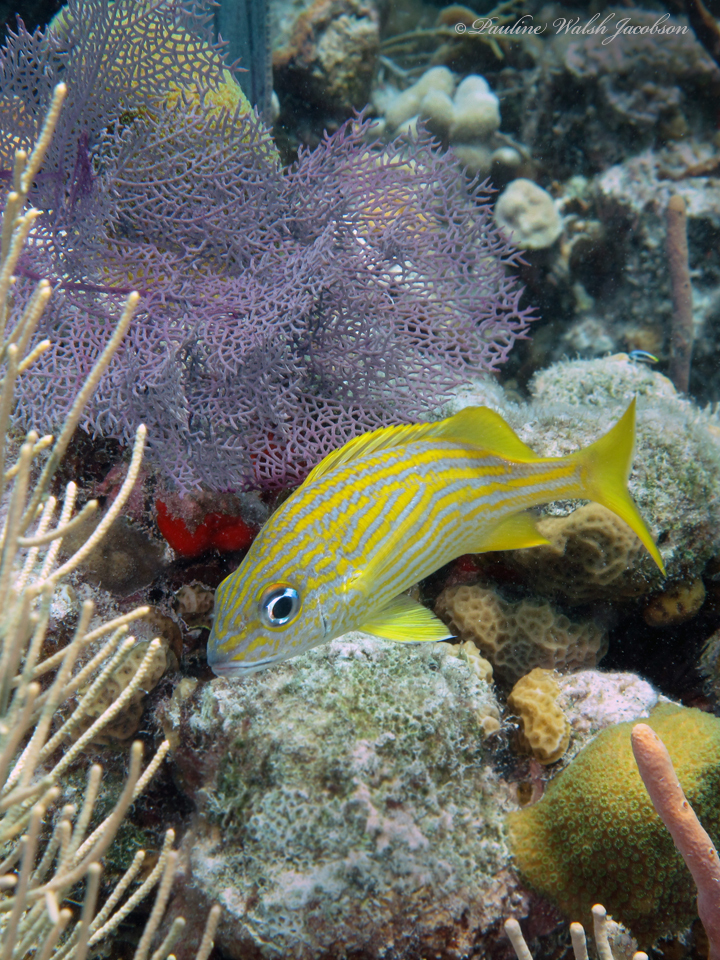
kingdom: Animalia
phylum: Chordata
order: Perciformes
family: Haemulidae
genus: Haemulon
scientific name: Haemulon flavolineatum
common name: French grunt
